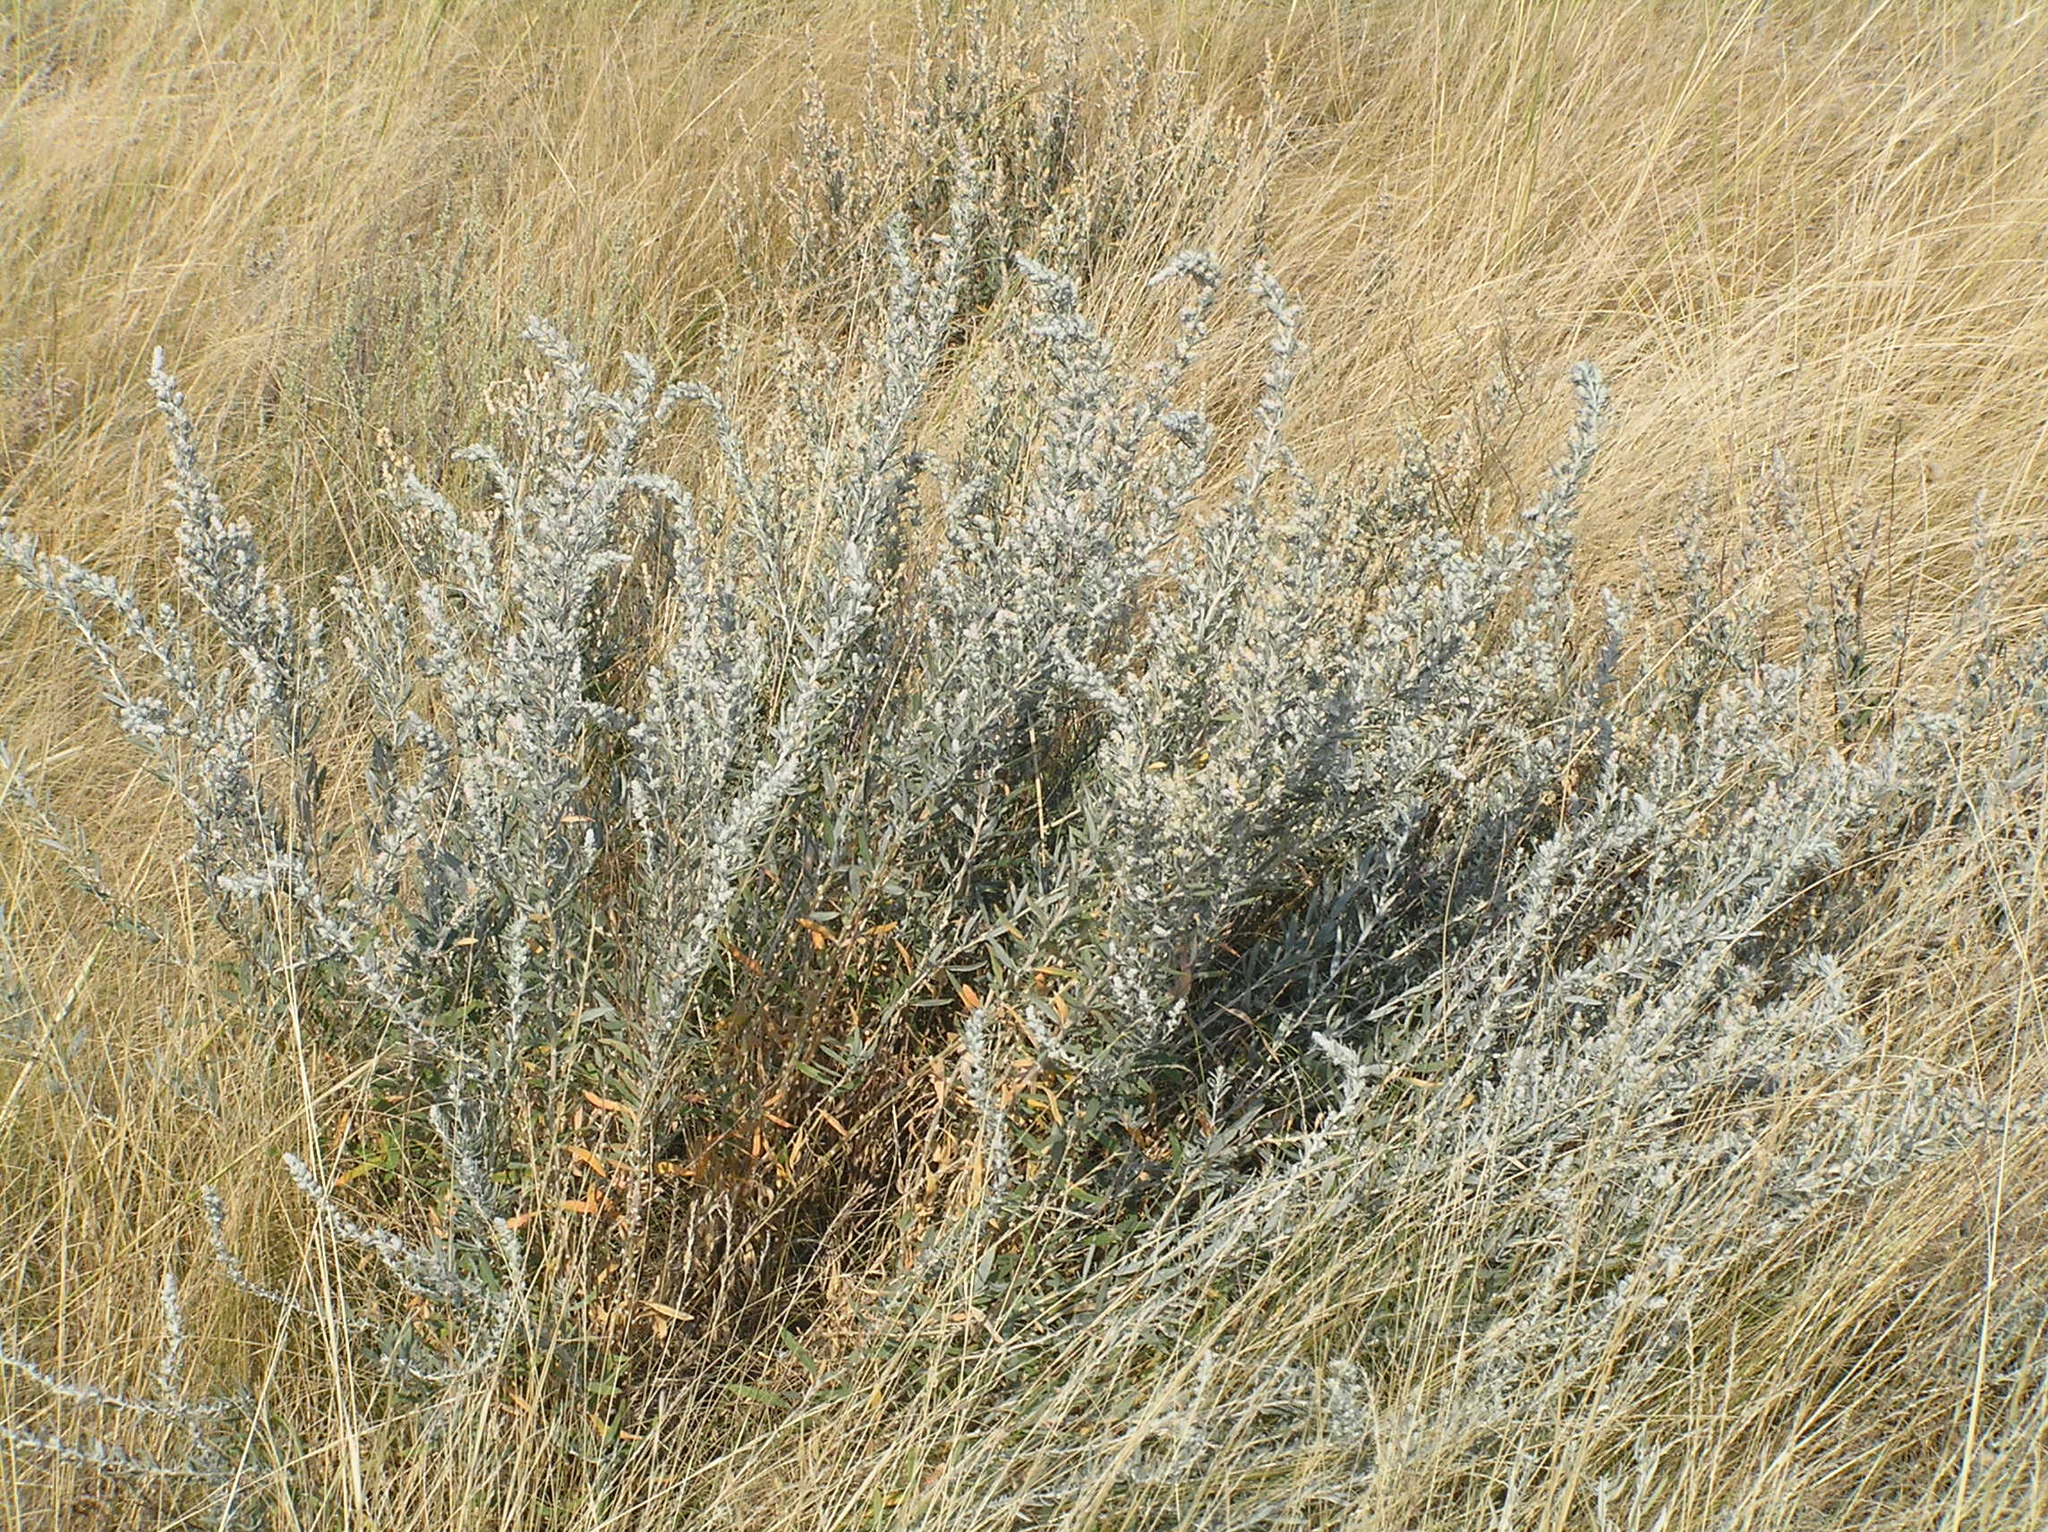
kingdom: Plantae
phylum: Tracheophyta
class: Magnoliopsida
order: Caryophyllales
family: Amaranthaceae
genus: Krascheninnikovia
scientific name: Krascheninnikovia ceratoides
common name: Pamirian winterfat
